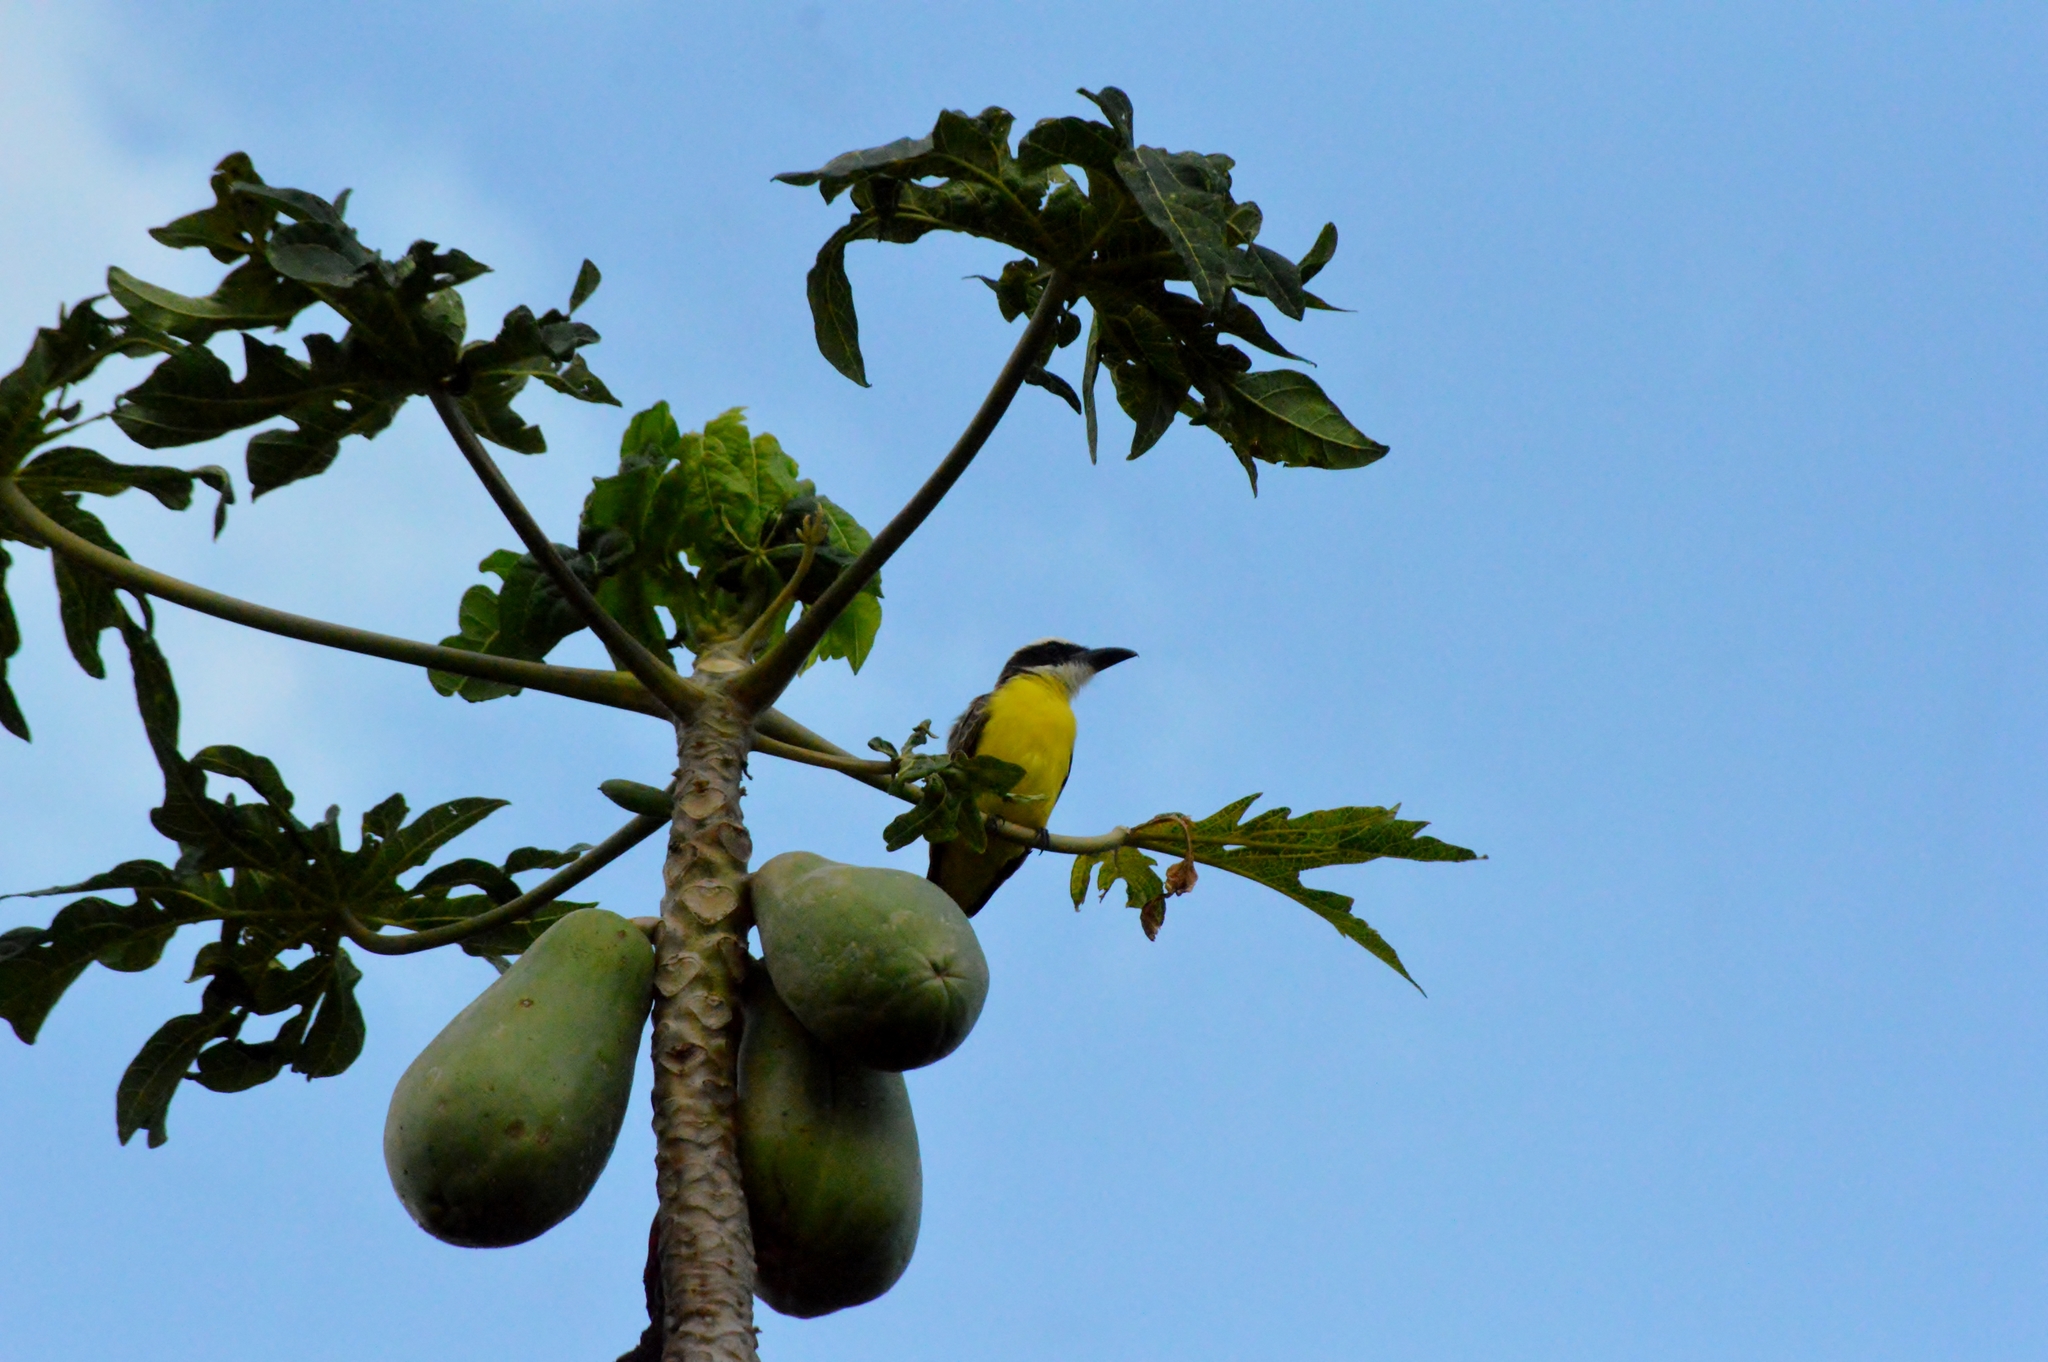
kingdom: Animalia
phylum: Chordata
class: Aves
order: Passeriformes
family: Tyrannidae
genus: Megarynchus
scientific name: Megarynchus pitangua
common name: Boat-billed flycatcher
